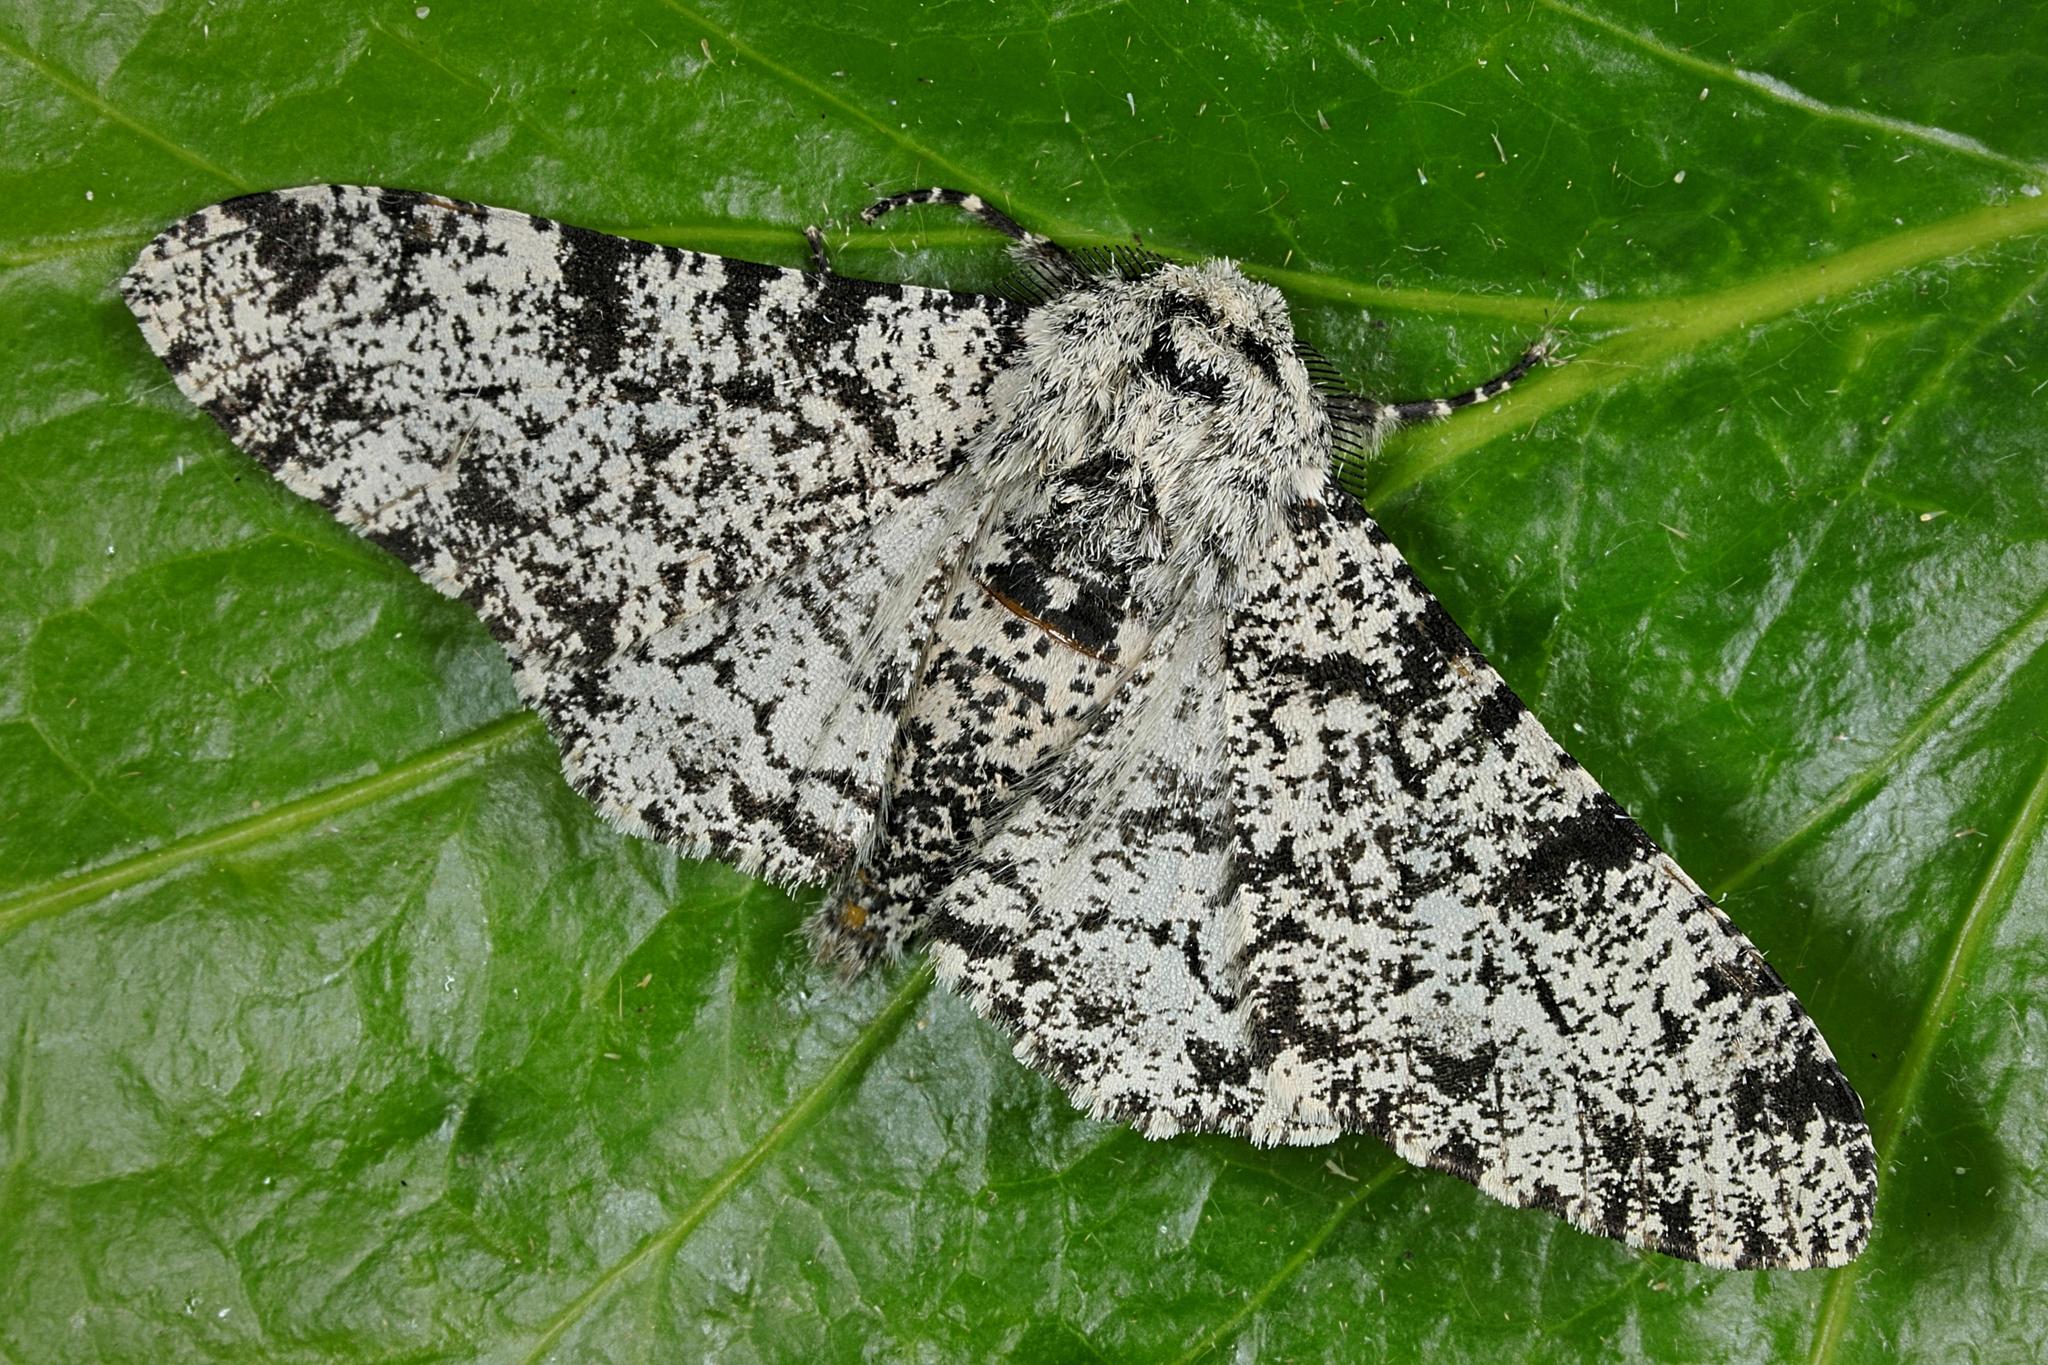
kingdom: Animalia
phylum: Arthropoda
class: Insecta
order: Lepidoptera
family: Geometridae
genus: Biston
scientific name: Biston betularia
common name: Peppered moth
